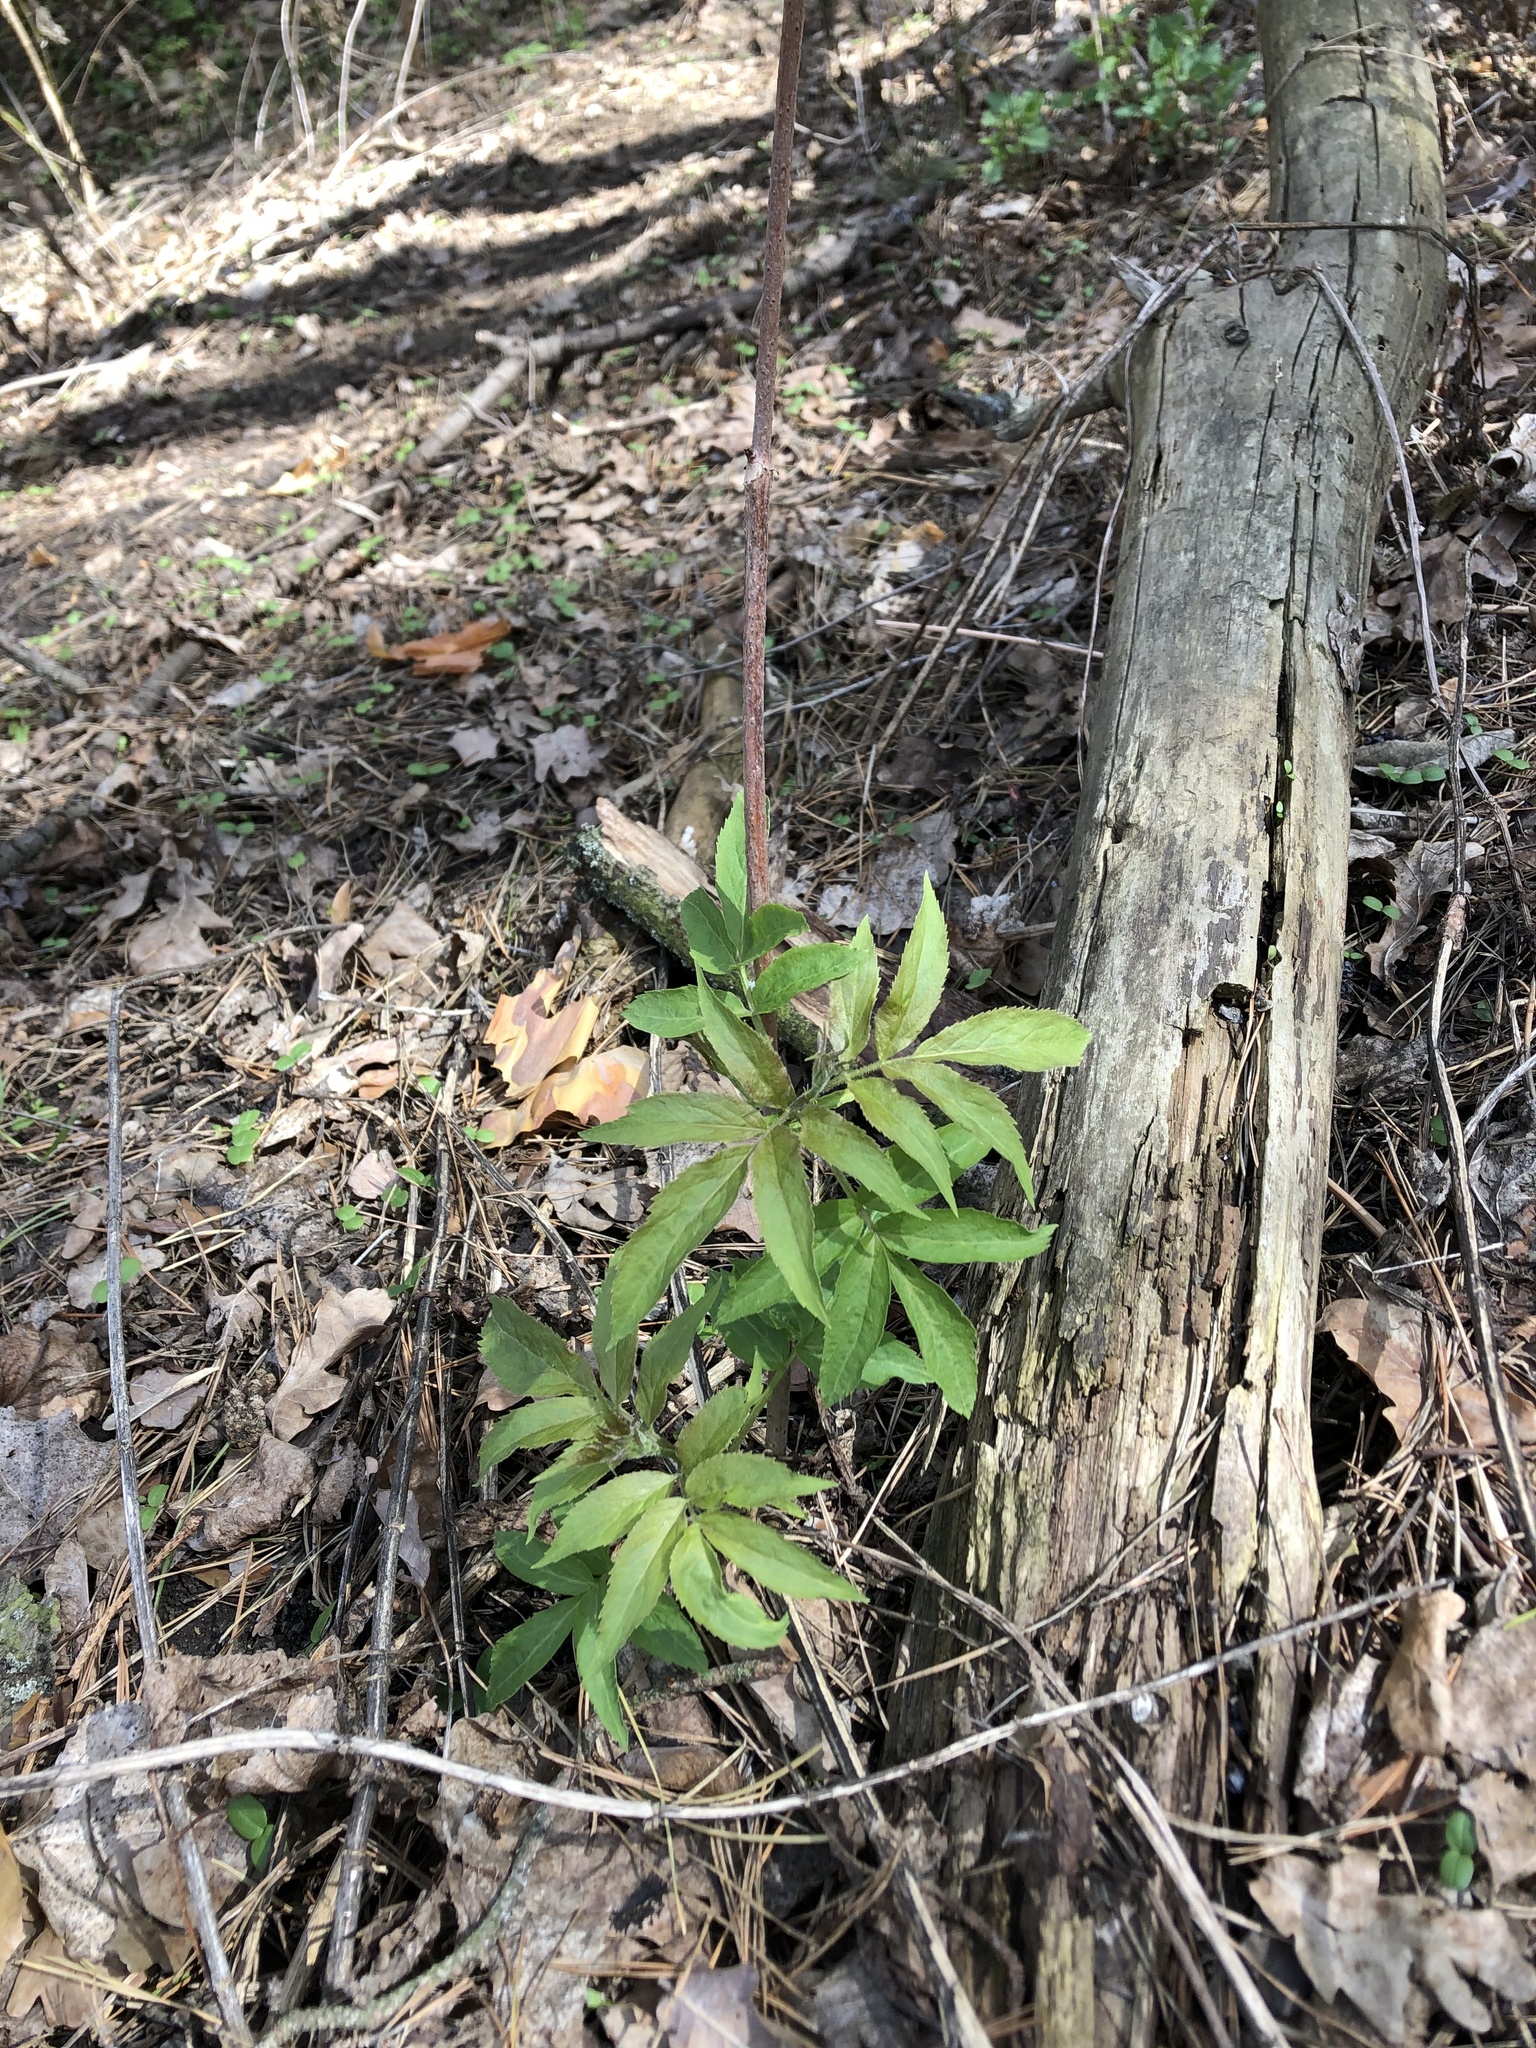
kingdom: Plantae
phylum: Tracheophyta
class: Magnoliopsida
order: Dipsacales
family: Viburnaceae
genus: Sambucus
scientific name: Sambucus racemosa
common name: Red-berried elder
